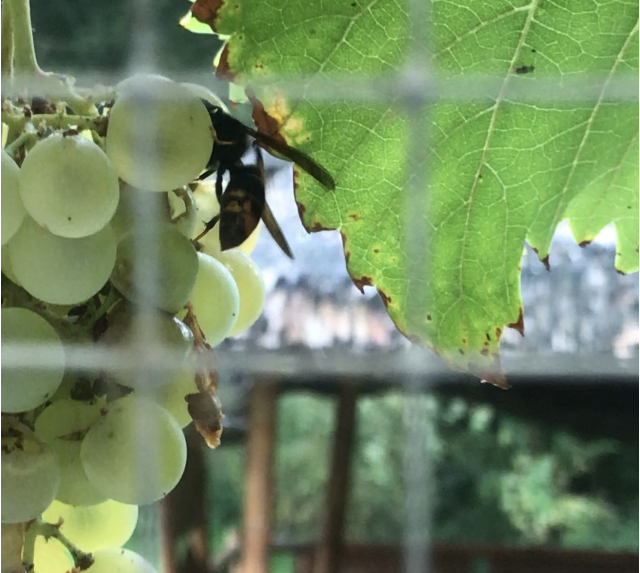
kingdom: Animalia
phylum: Arthropoda
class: Insecta
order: Hymenoptera
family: Vespidae
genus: Vespa
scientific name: Vespa velutina
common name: Asian hornet
